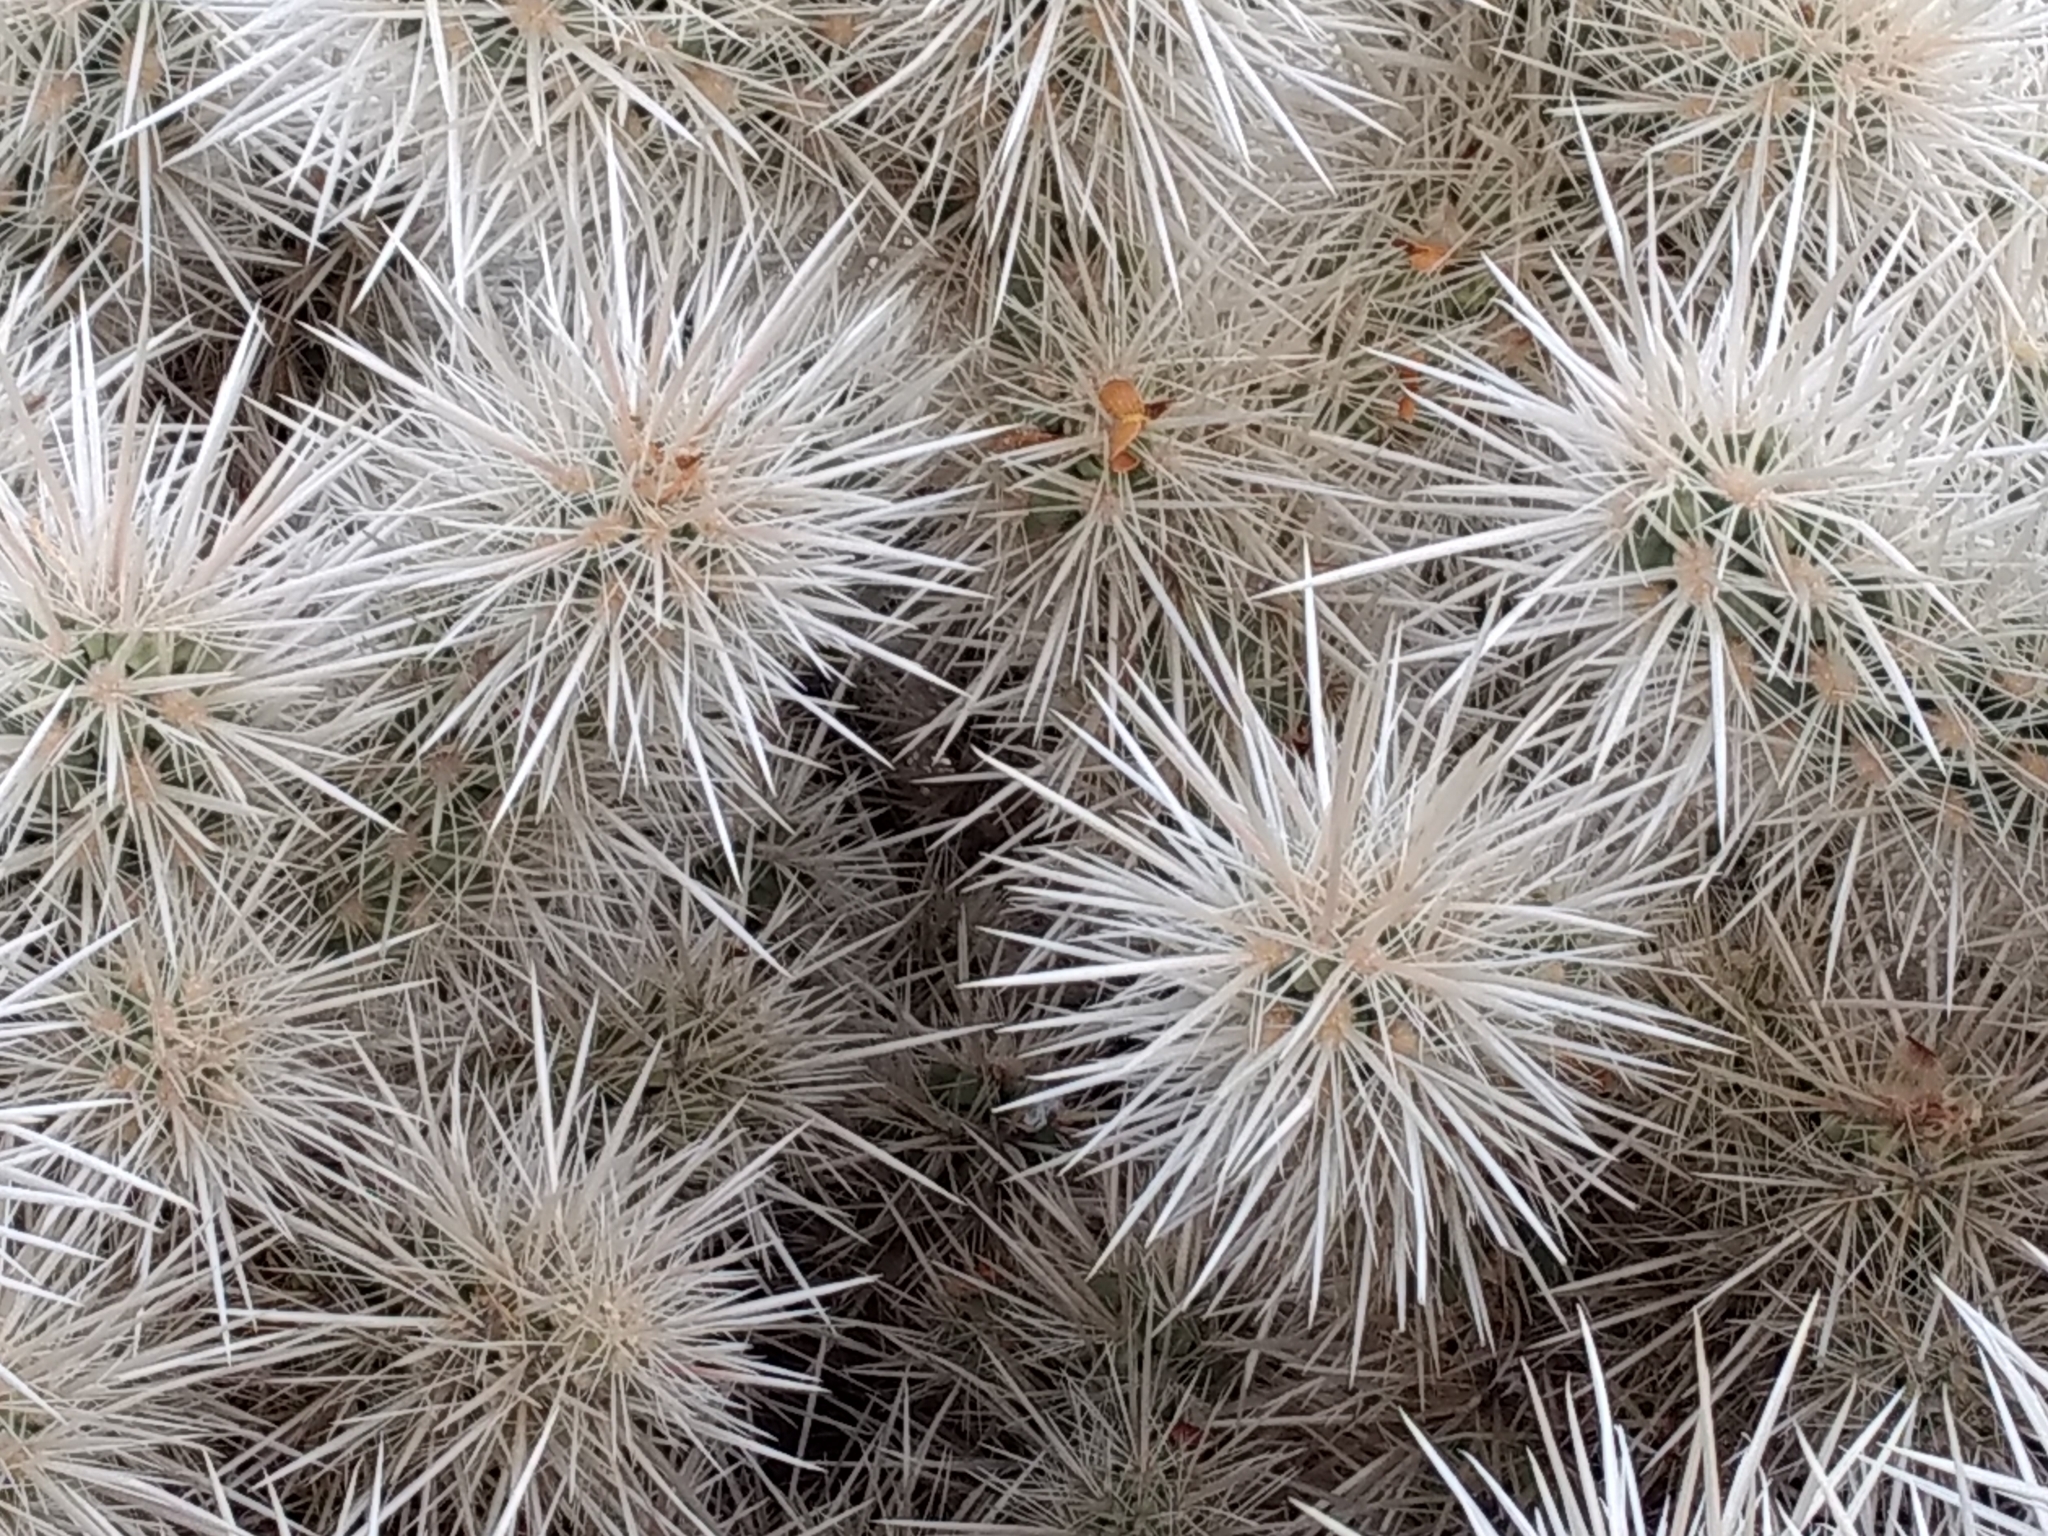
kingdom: Plantae
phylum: Tracheophyta
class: Magnoliopsida
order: Caryophyllales
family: Cactaceae
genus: Cylindropuntia
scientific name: Cylindropuntia echinocarpa
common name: Ground cholla
